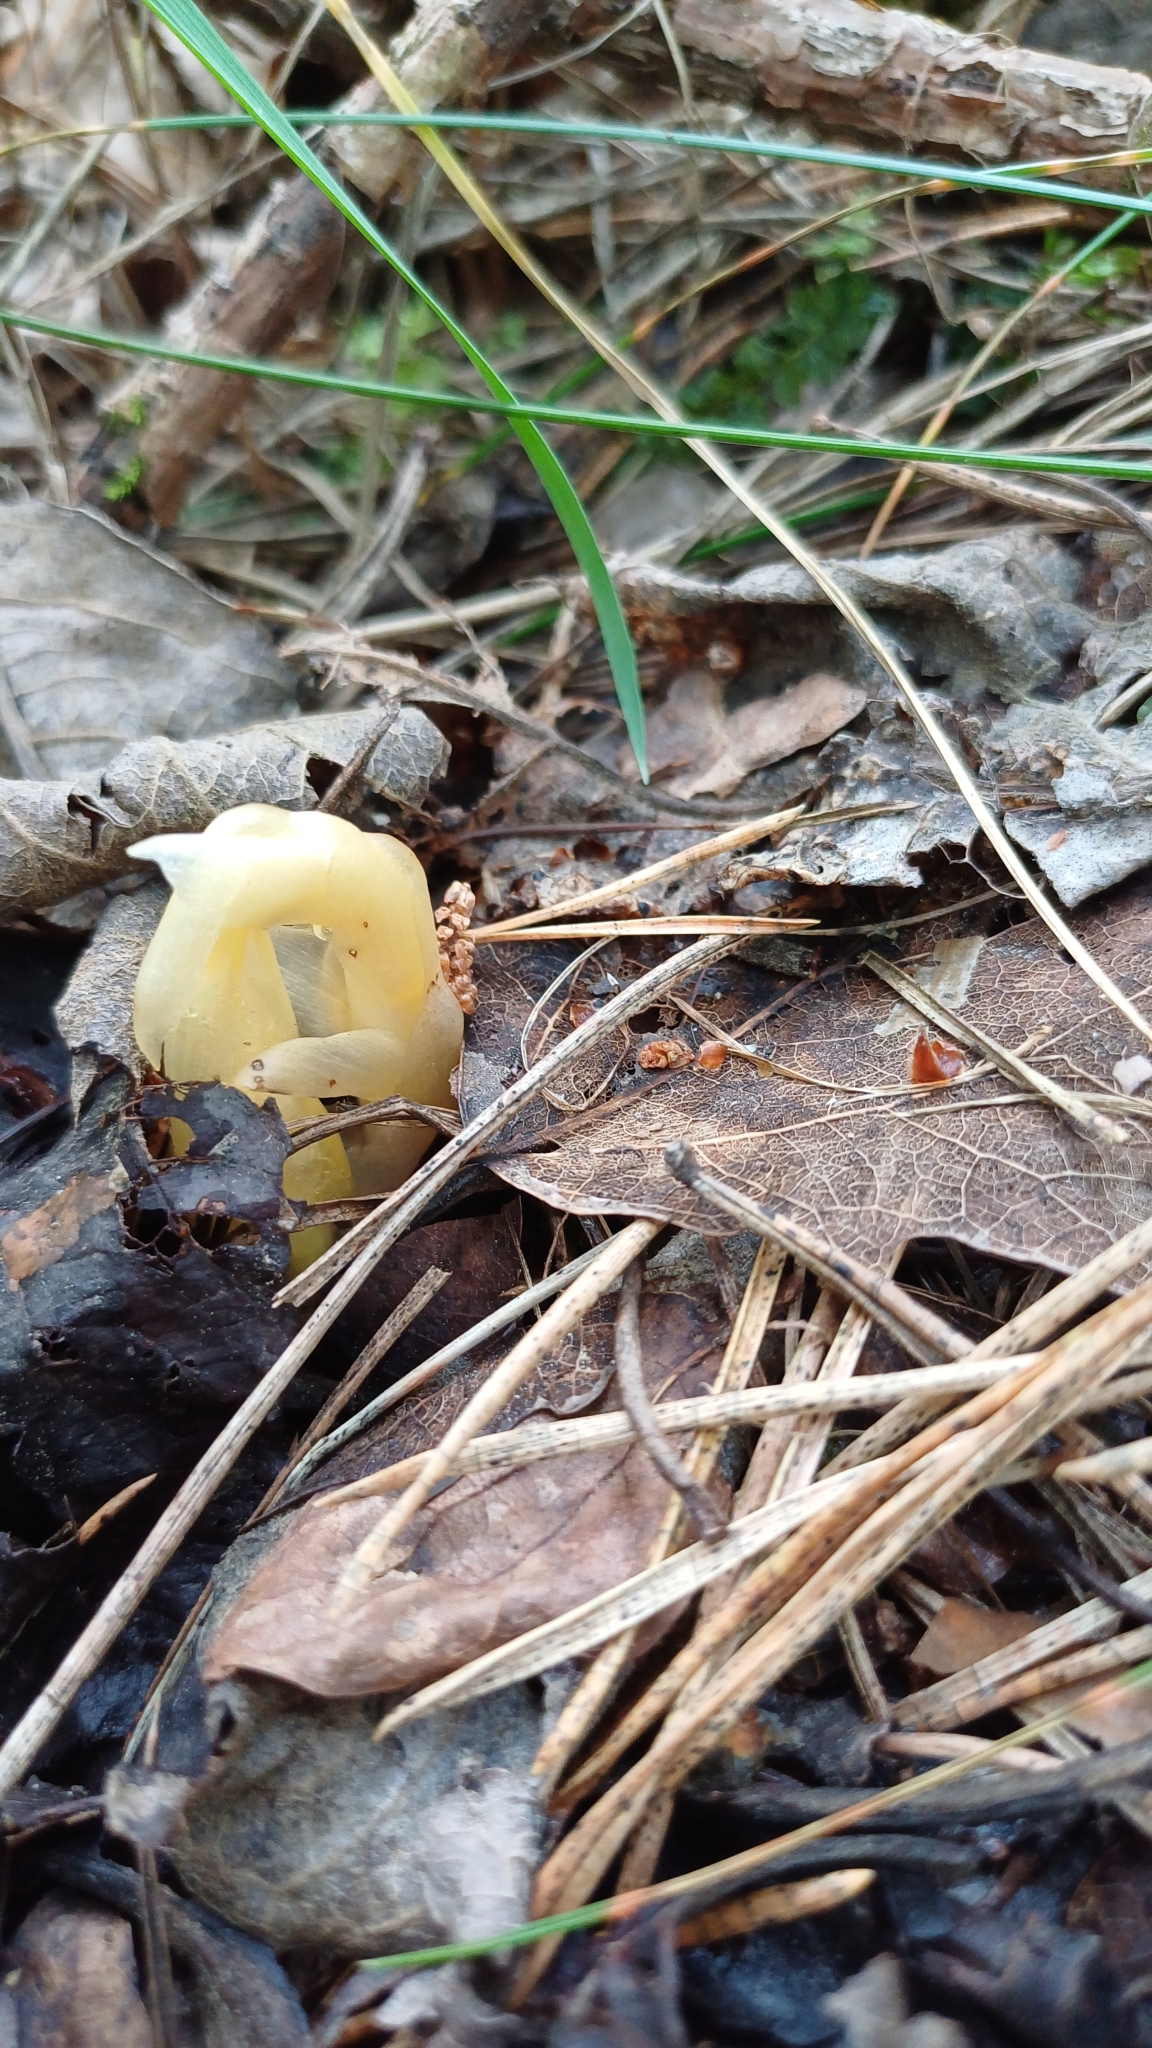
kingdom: Plantae
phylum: Tracheophyta
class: Magnoliopsida
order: Ericales
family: Ericaceae
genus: Hypopitys
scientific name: Hypopitys monotropa
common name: Yellow bird's-nest
